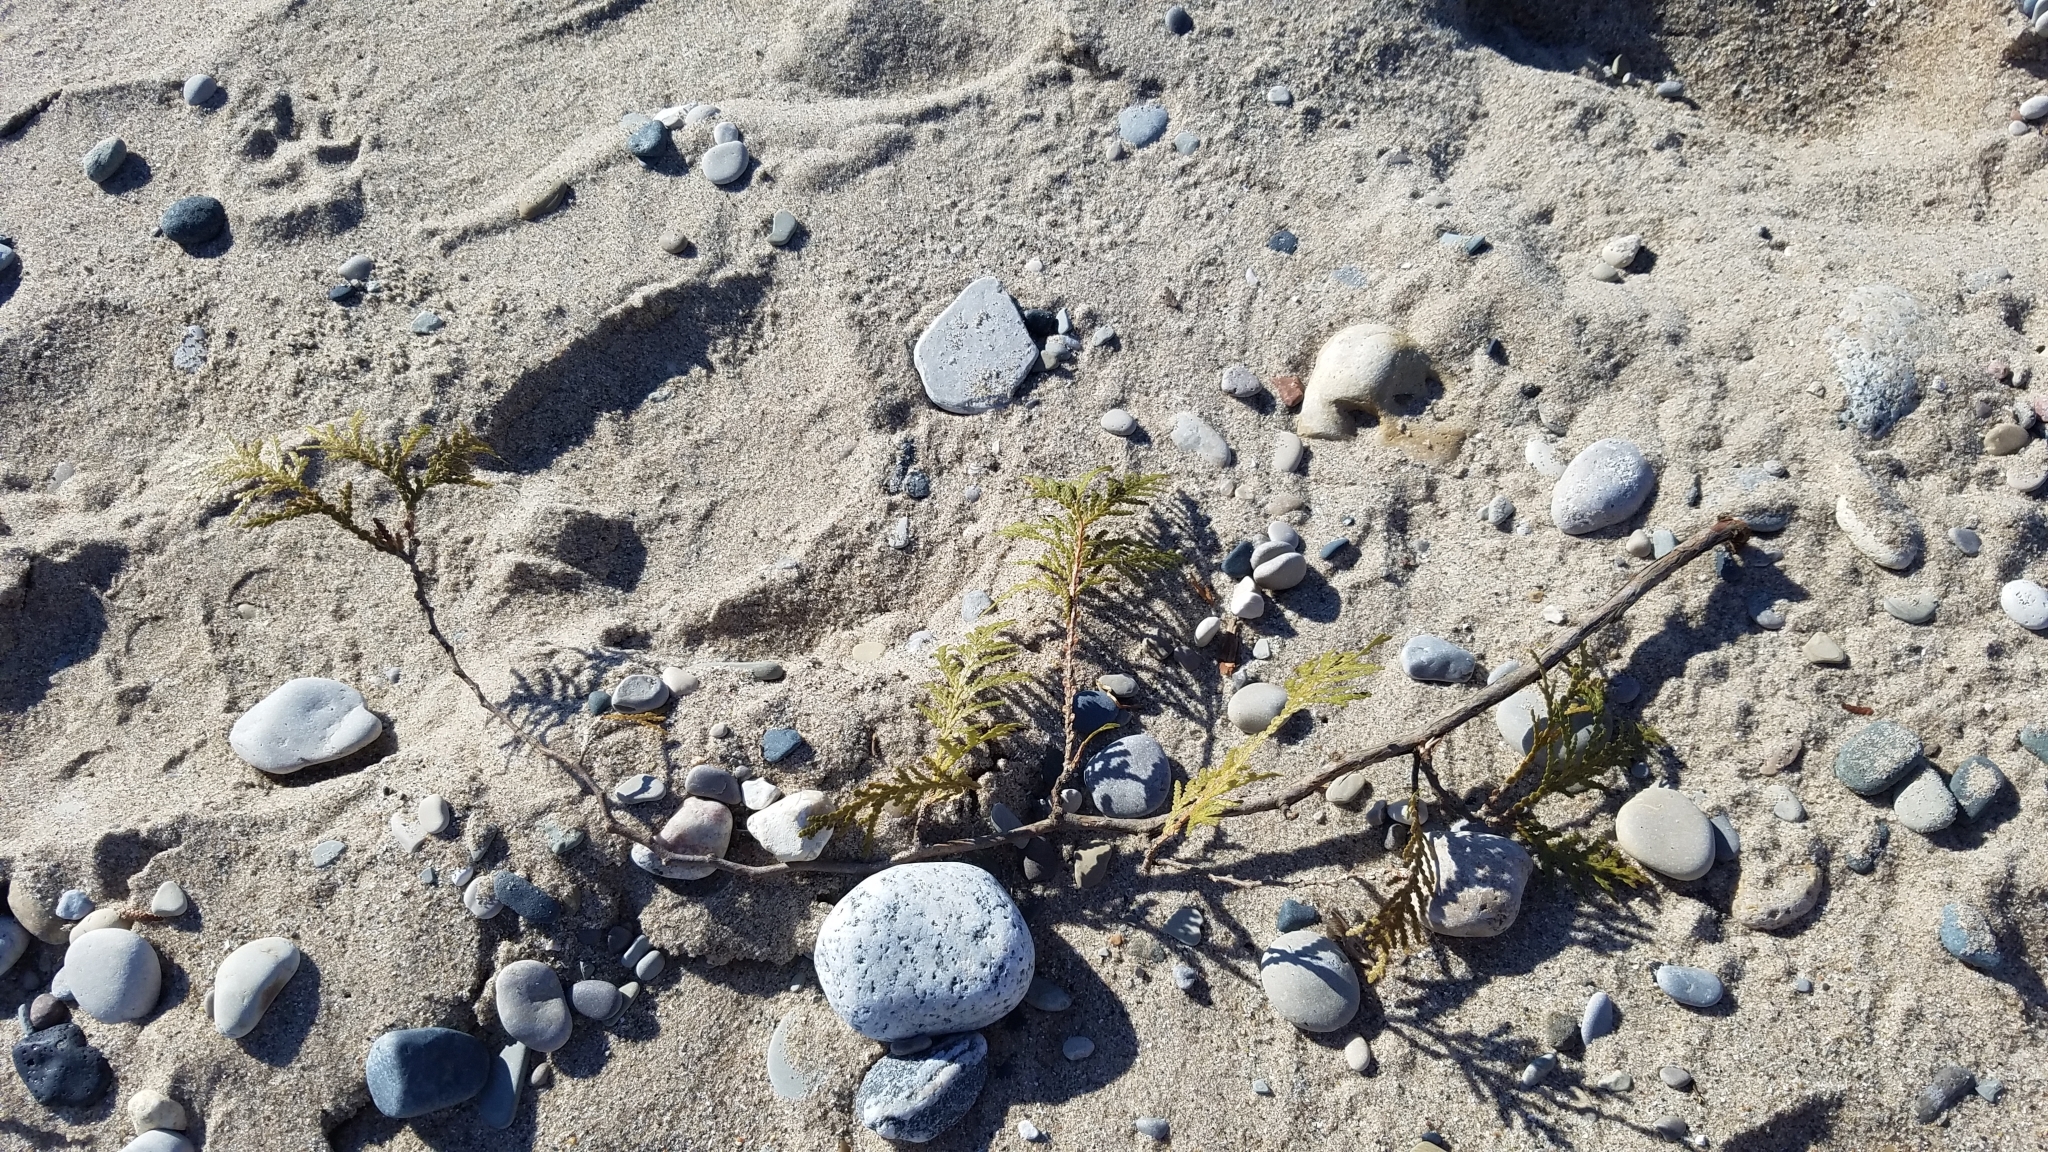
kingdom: Plantae
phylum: Tracheophyta
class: Pinopsida
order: Pinales
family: Cupressaceae
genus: Thuja
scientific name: Thuja occidentalis
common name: Northern white-cedar
